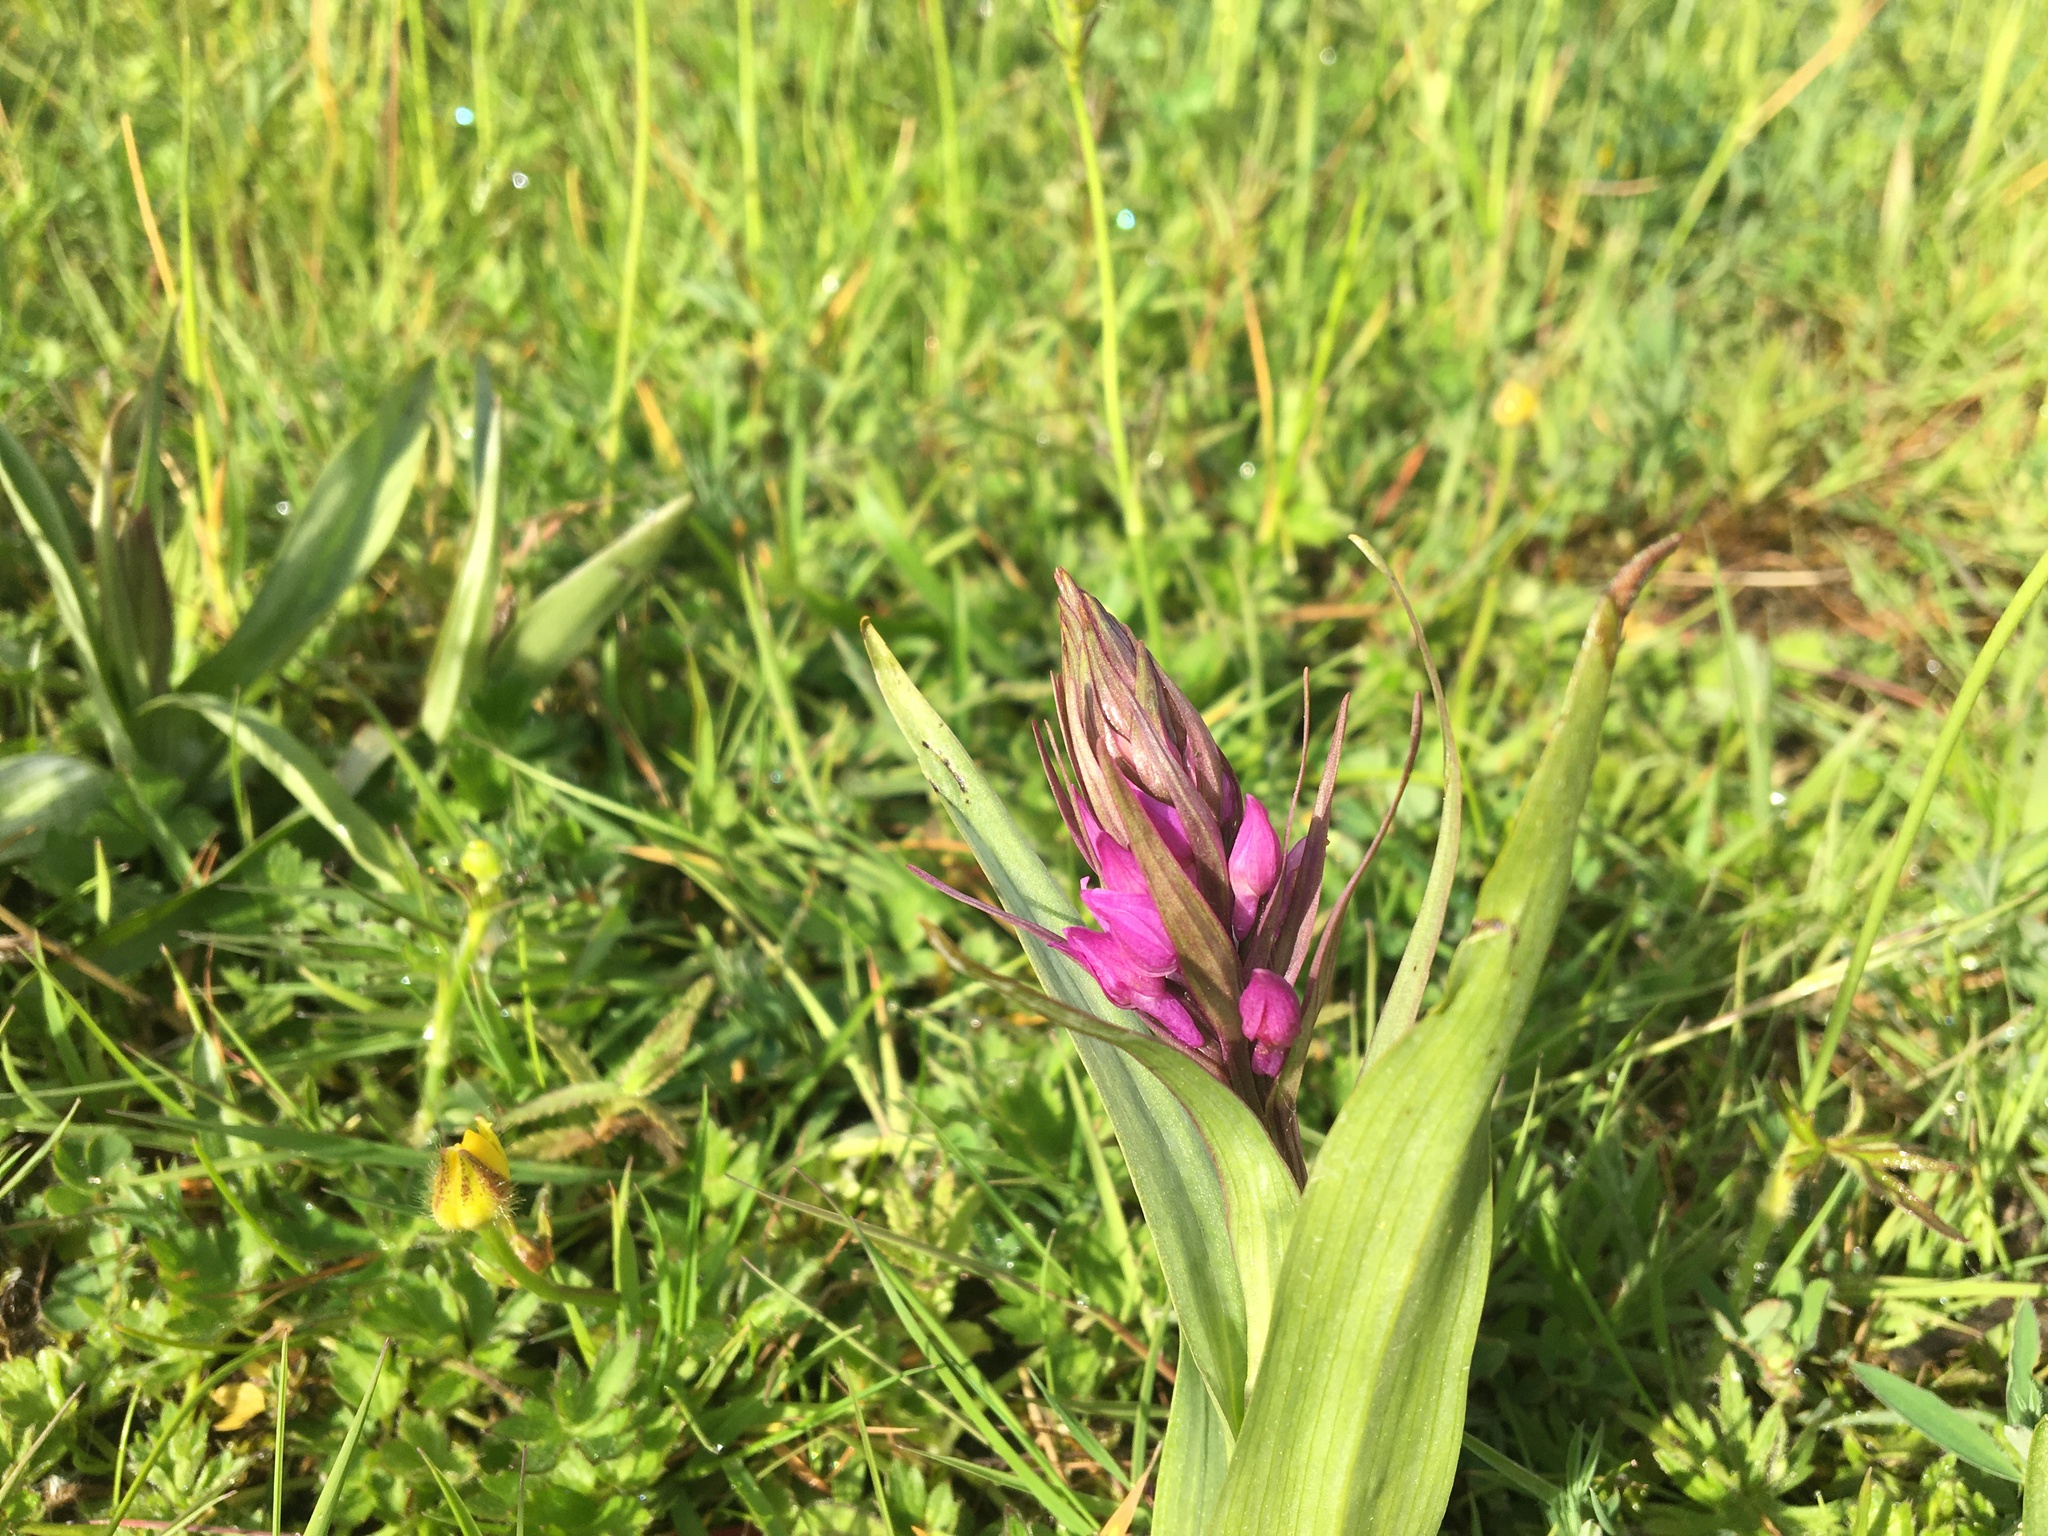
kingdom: Plantae
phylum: Tracheophyta
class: Liliopsida
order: Asparagales
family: Orchidaceae
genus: Dactylorhiza
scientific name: Dactylorhiza majalis
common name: Marsh orchid
